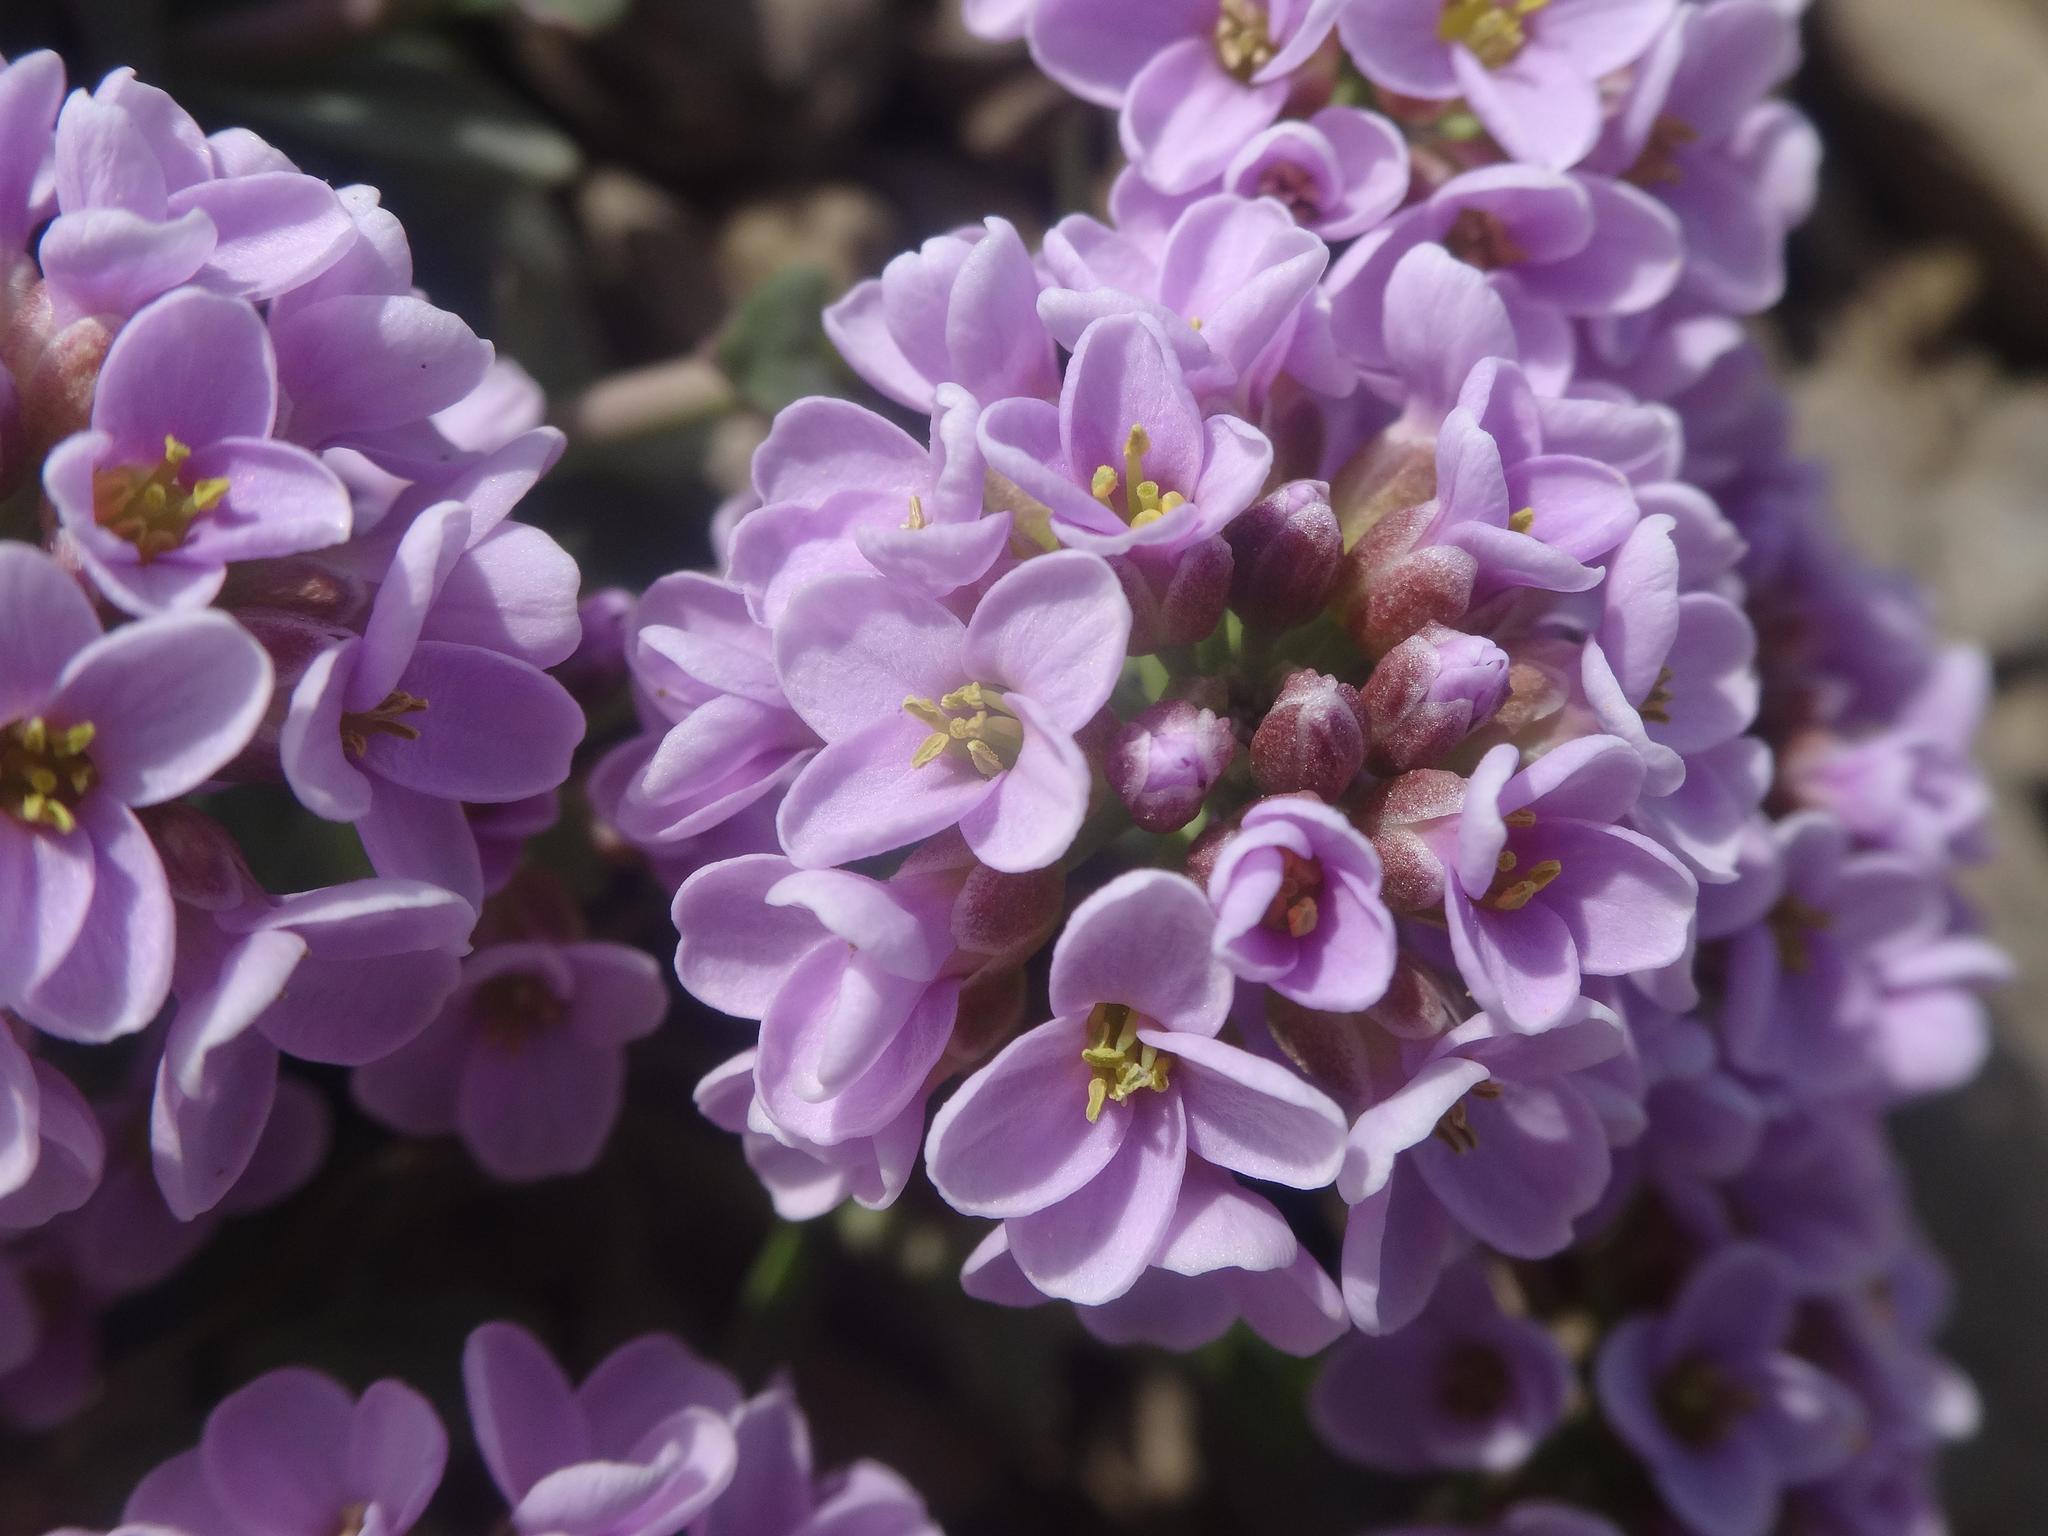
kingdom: Plantae
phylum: Tracheophyta
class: Magnoliopsida
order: Brassicales
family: Brassicaceae
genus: Noccaea
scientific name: Noccaea rotundifolia
